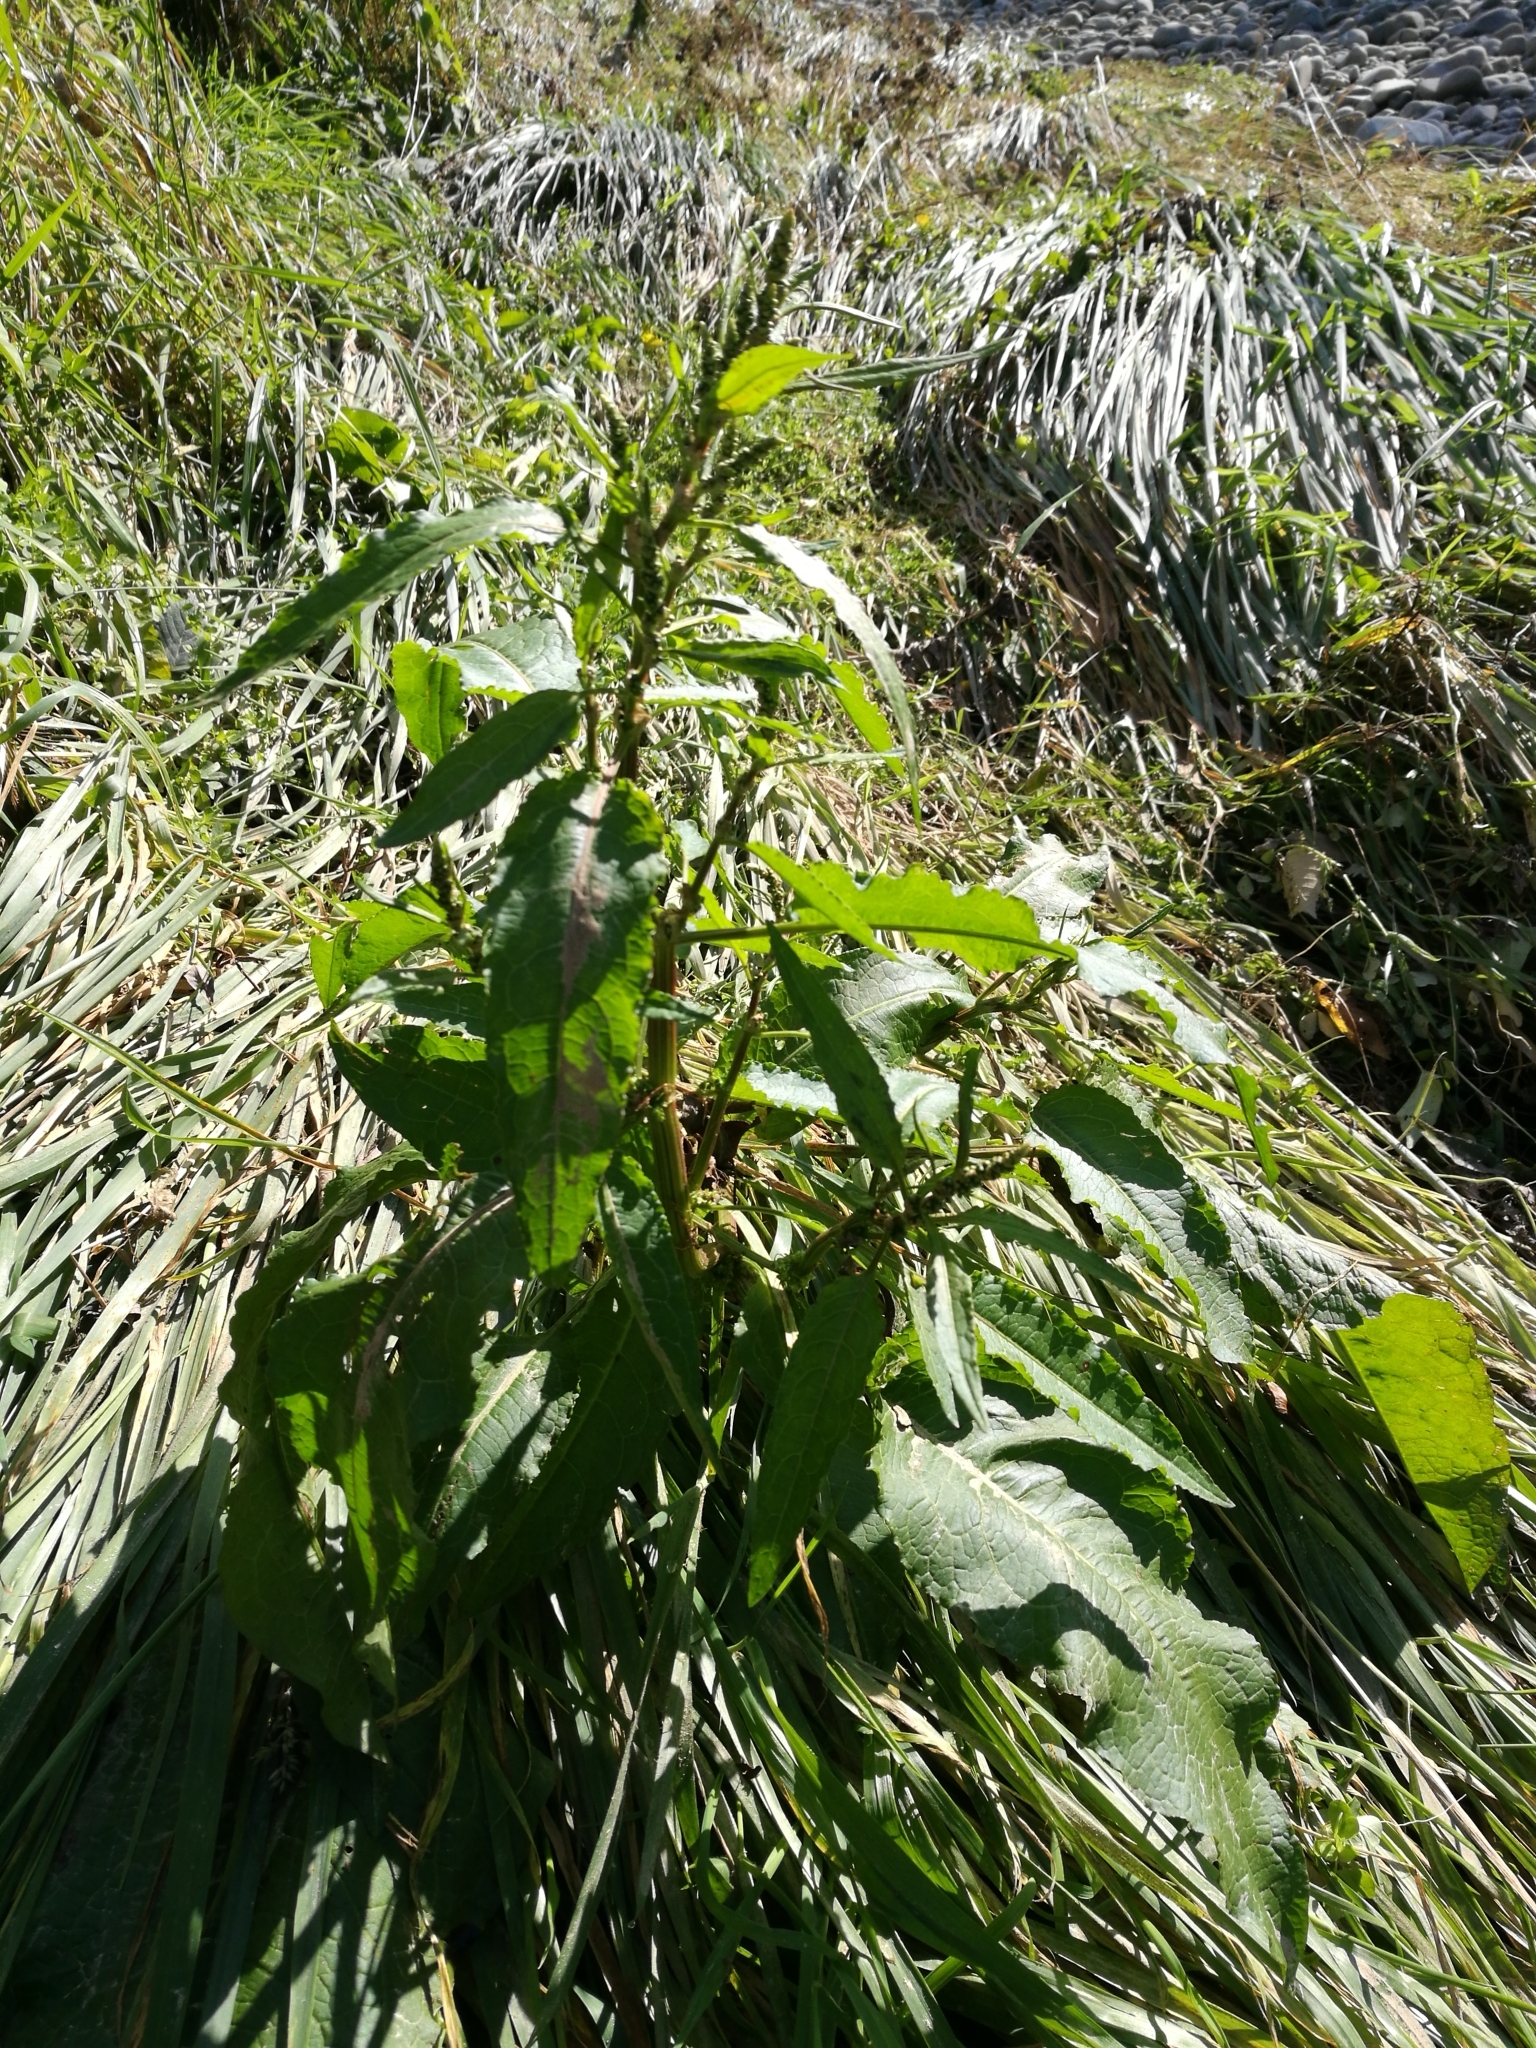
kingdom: Plantae
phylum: Tracheophyta
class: Magnoliopsida
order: Caryophyllales
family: Polygonaceae
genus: Rumex
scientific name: Rumex obtusifolius
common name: Bitter dock
